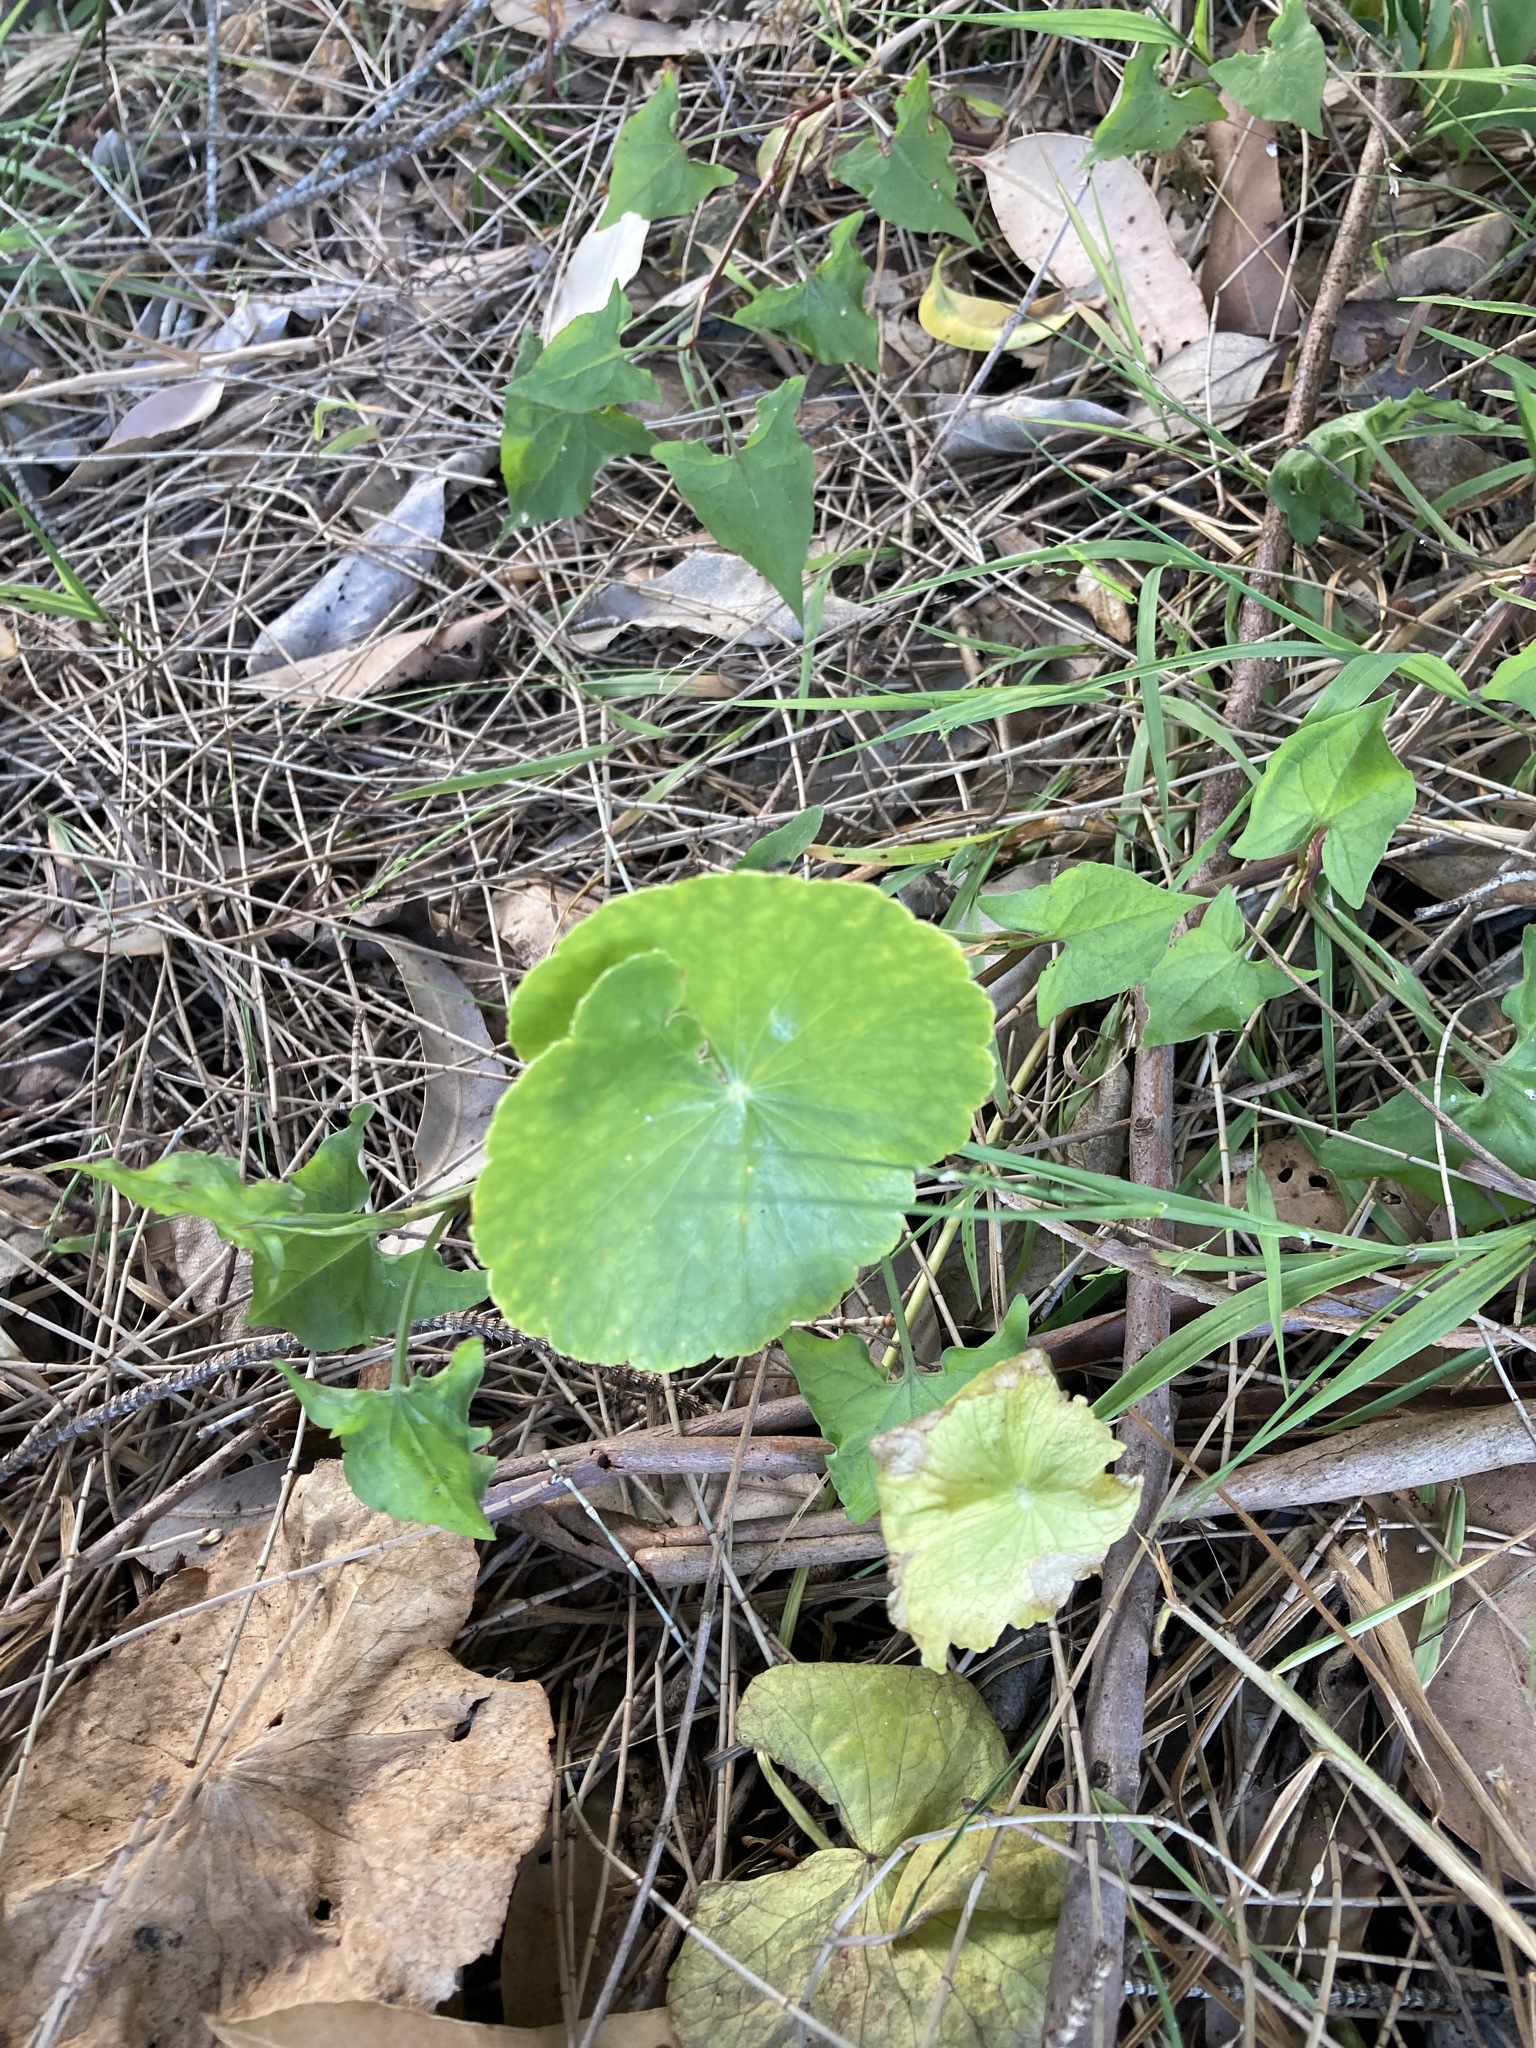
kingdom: Plantae
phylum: Tracheophyta
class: Magnoliopsida
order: Apiales
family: Araliaceae
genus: Hydrocotyle
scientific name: Hydrocotyle bonariensis
